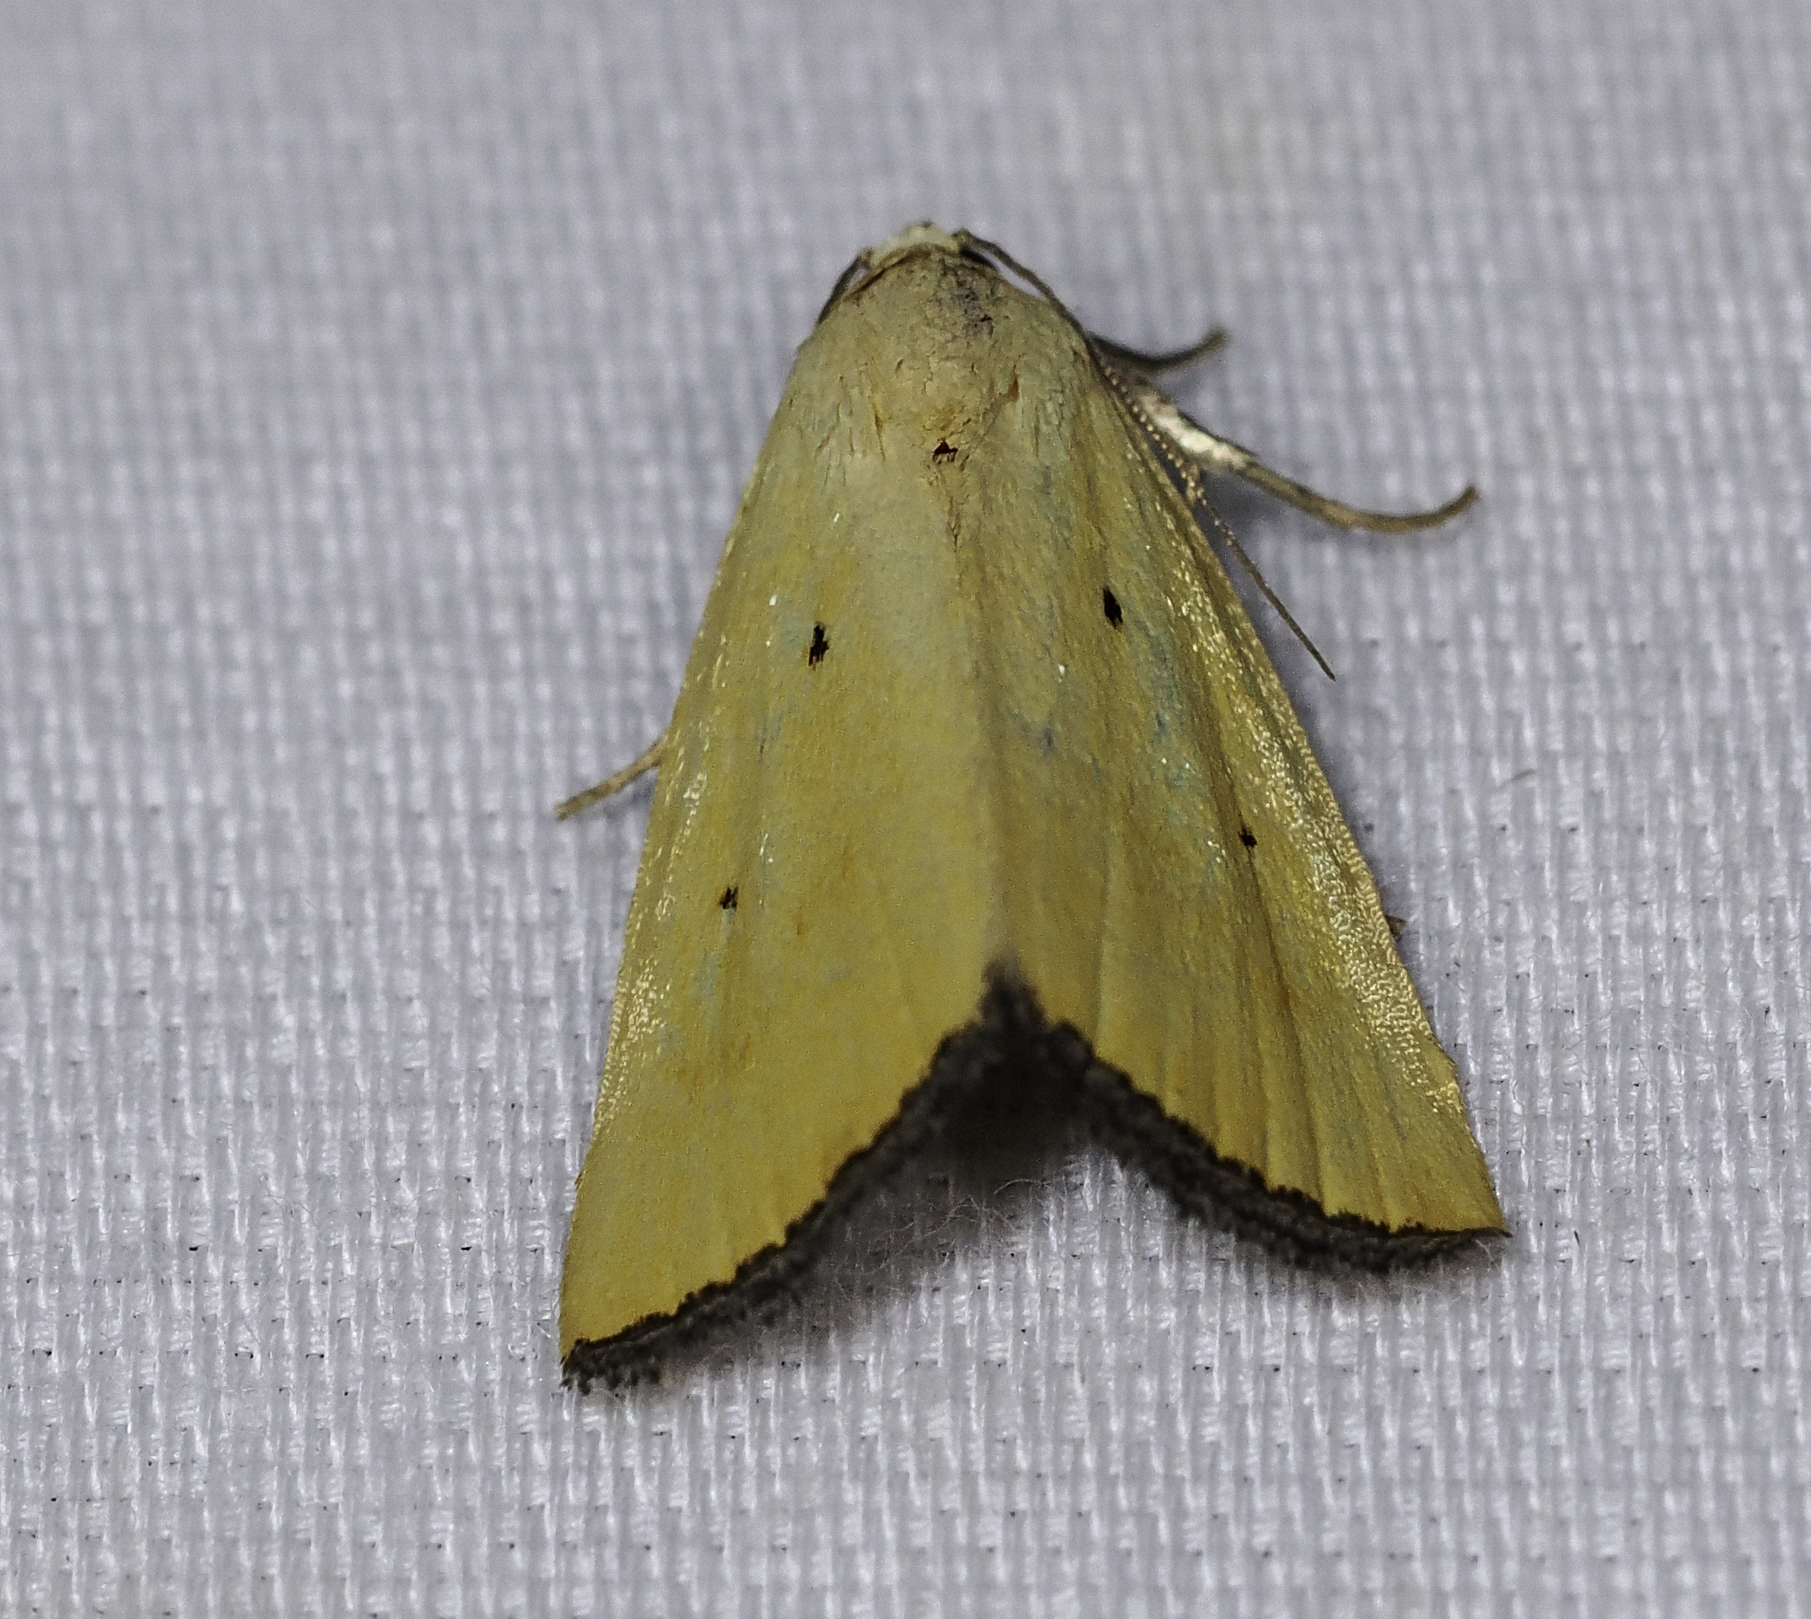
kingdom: Animalia
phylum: Arthropoda
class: Insecta
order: Lepidoptera
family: Noctuidae
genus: Marimatha
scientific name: Marimatha nigrofimbria
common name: Black-bordered lemon moth
